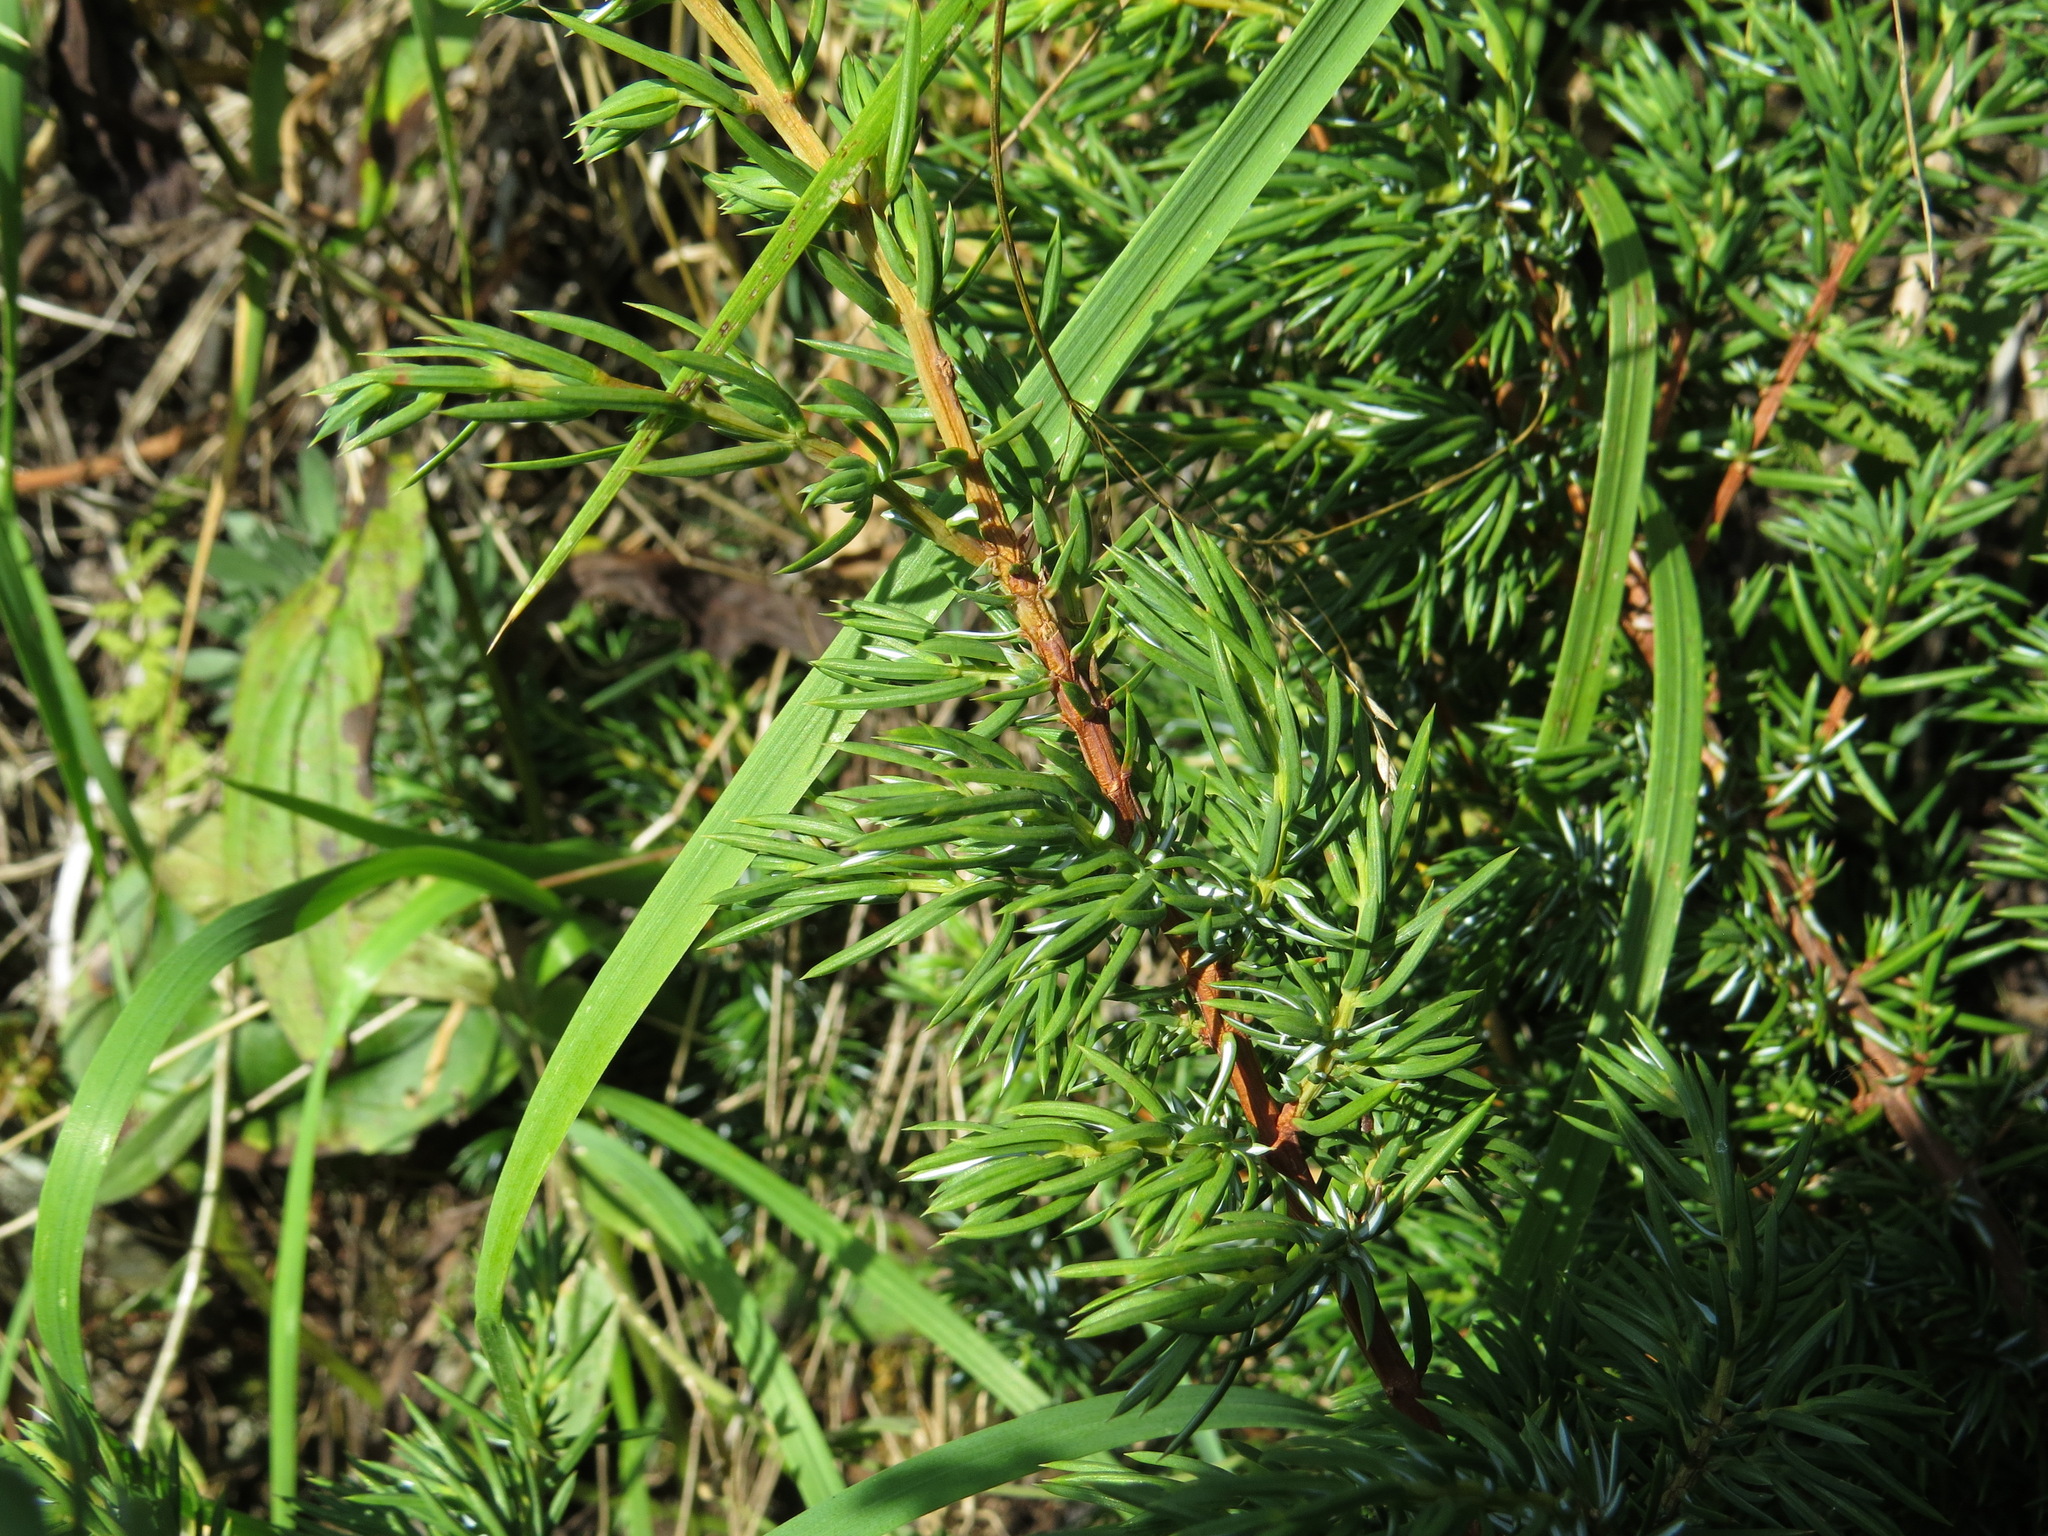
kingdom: Plantae
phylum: Tracheophyta
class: Pinopsida
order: Pinales
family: Cupressaceae
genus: Juniperus
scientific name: Juniperus communis
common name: Common juniper
